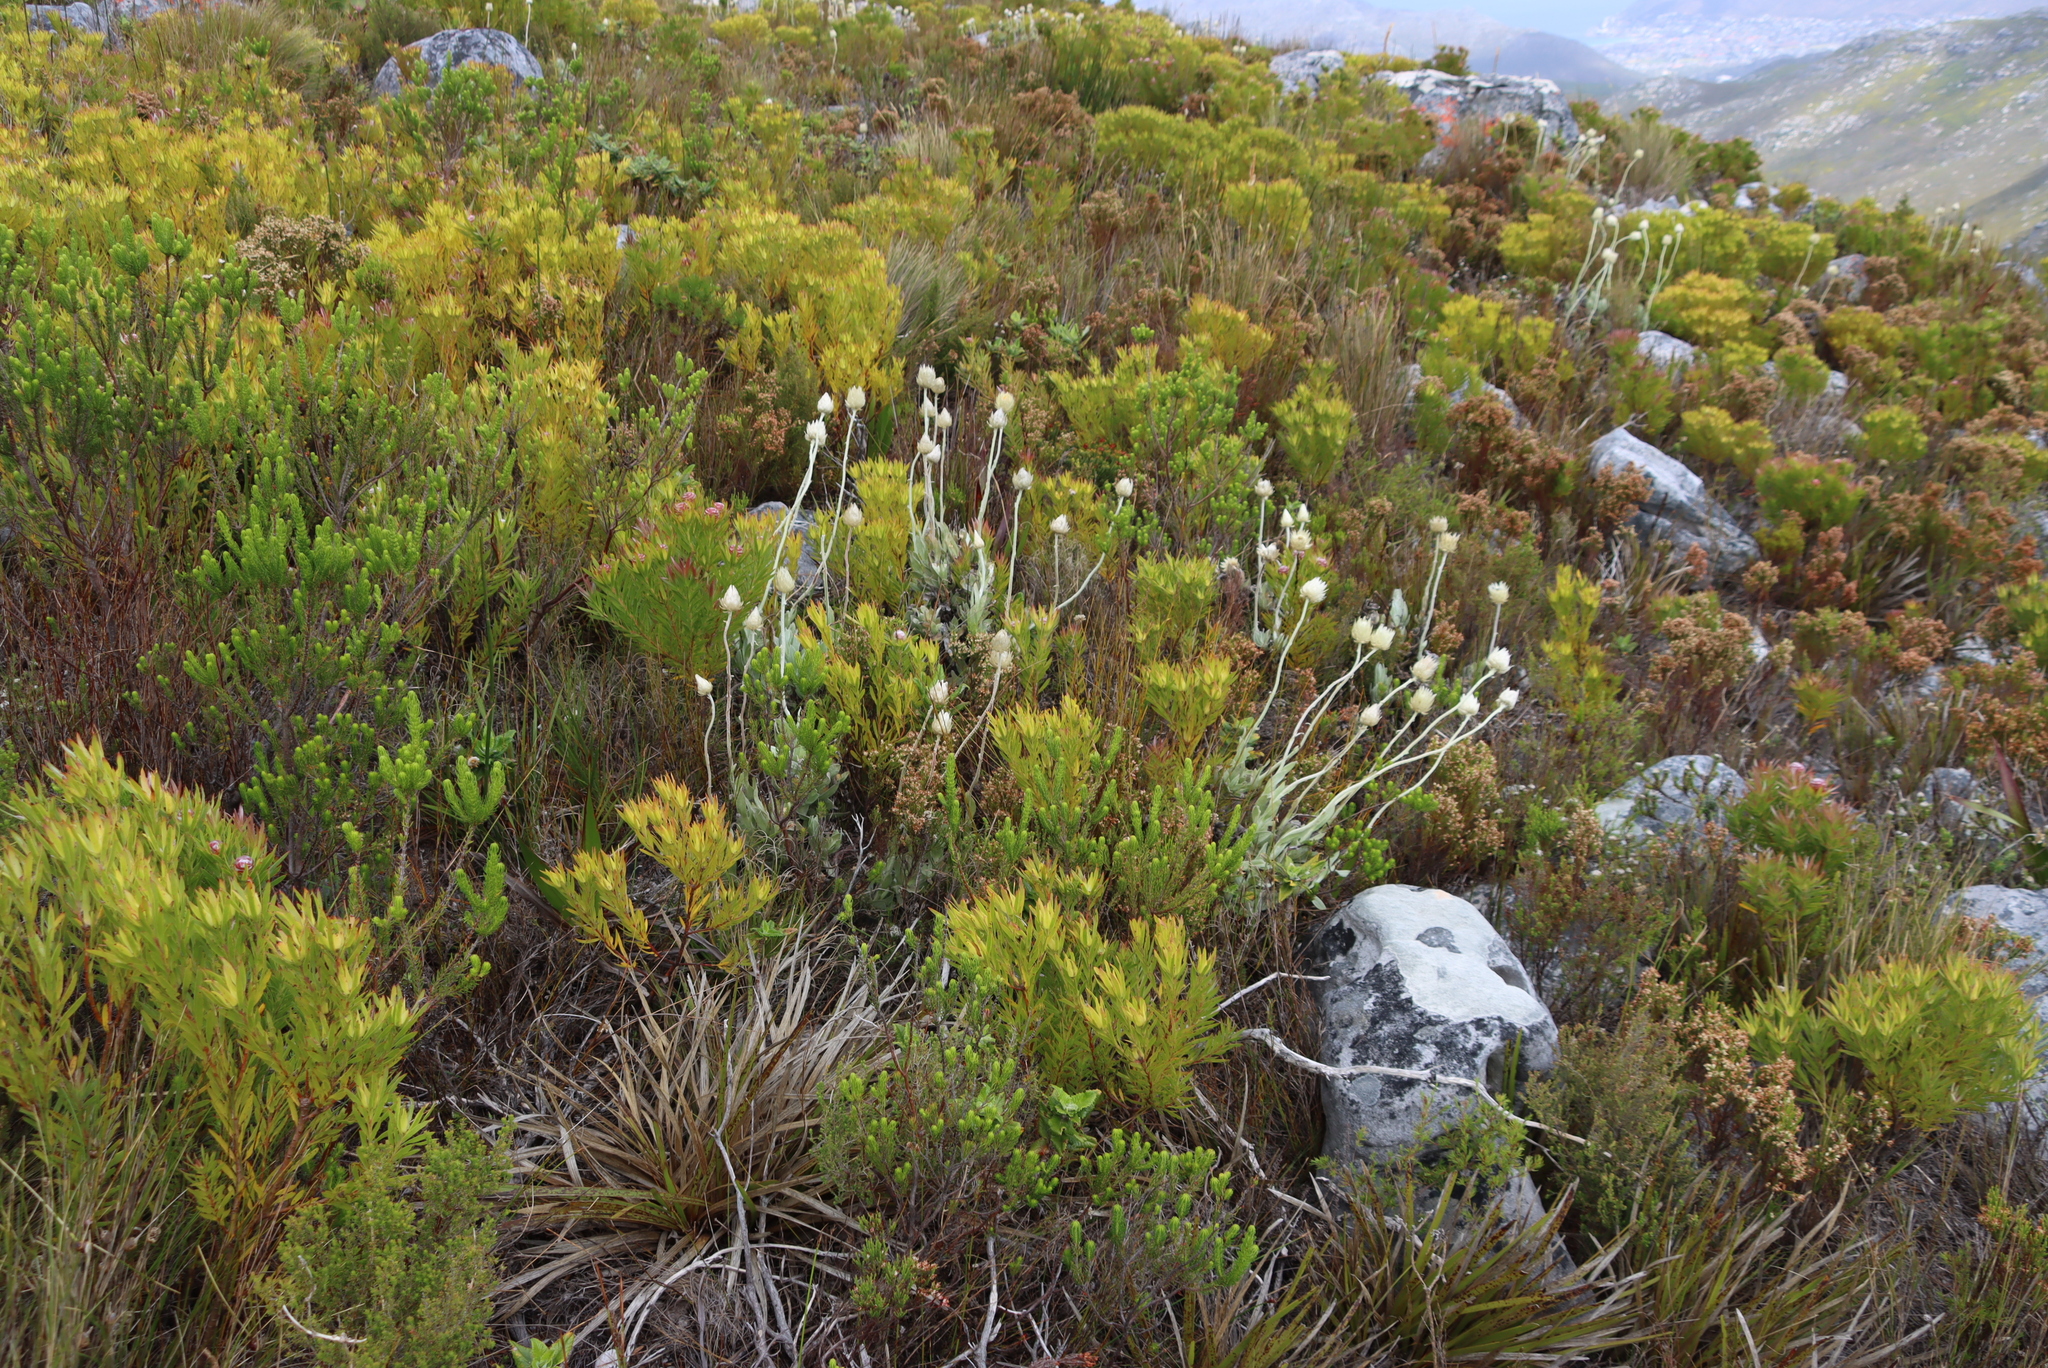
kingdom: Plantae
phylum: Tracheophyta
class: Magnoliopsida
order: Asterales
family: Asteraceae
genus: Syncarpha
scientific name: Syncarpha speciosissima
